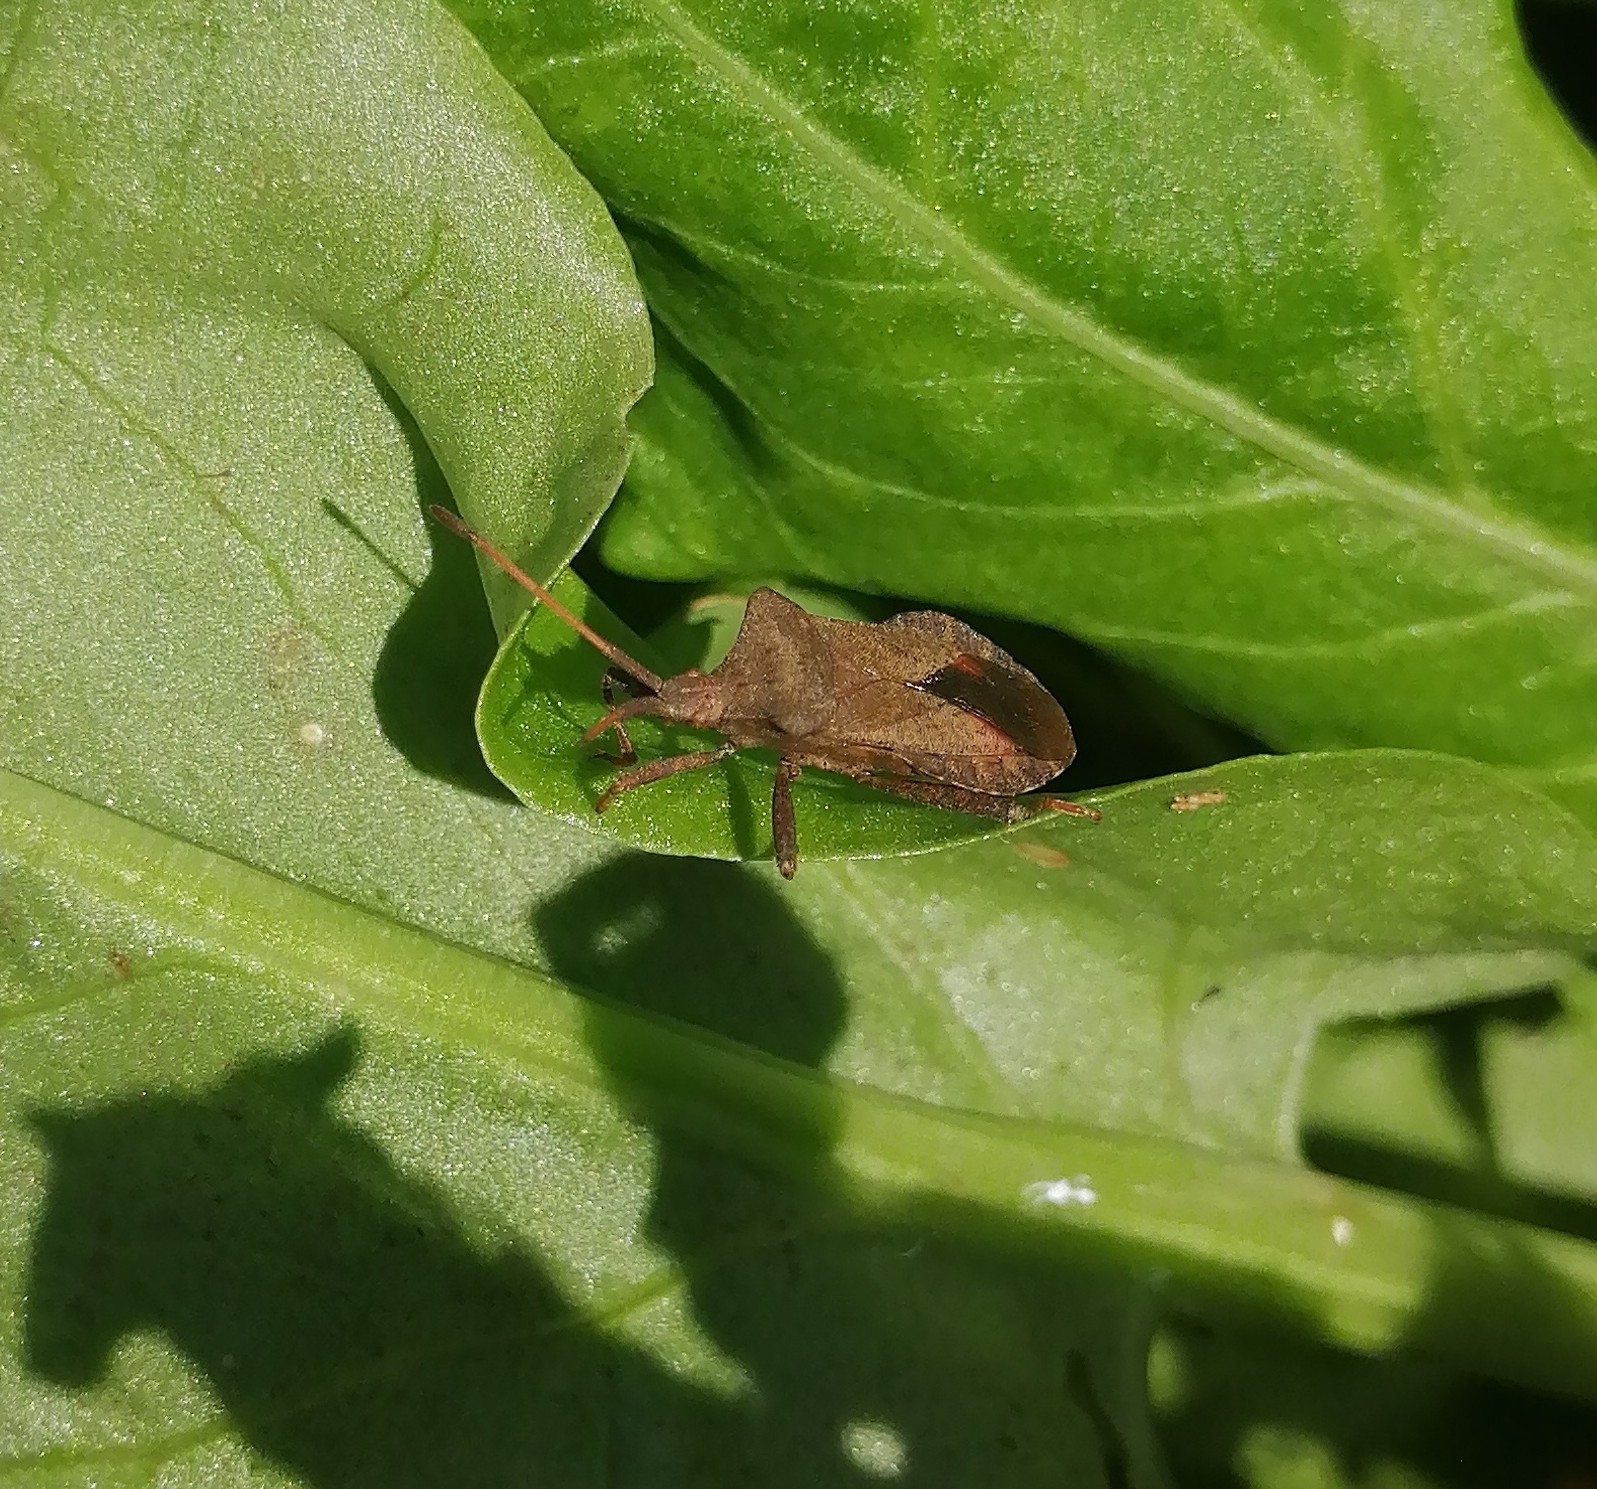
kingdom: Animalia
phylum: Arthropoda
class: Insecta
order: Hemiptera
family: Coreidae
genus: Coreus
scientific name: Coreus marginatus
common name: Dock bug
